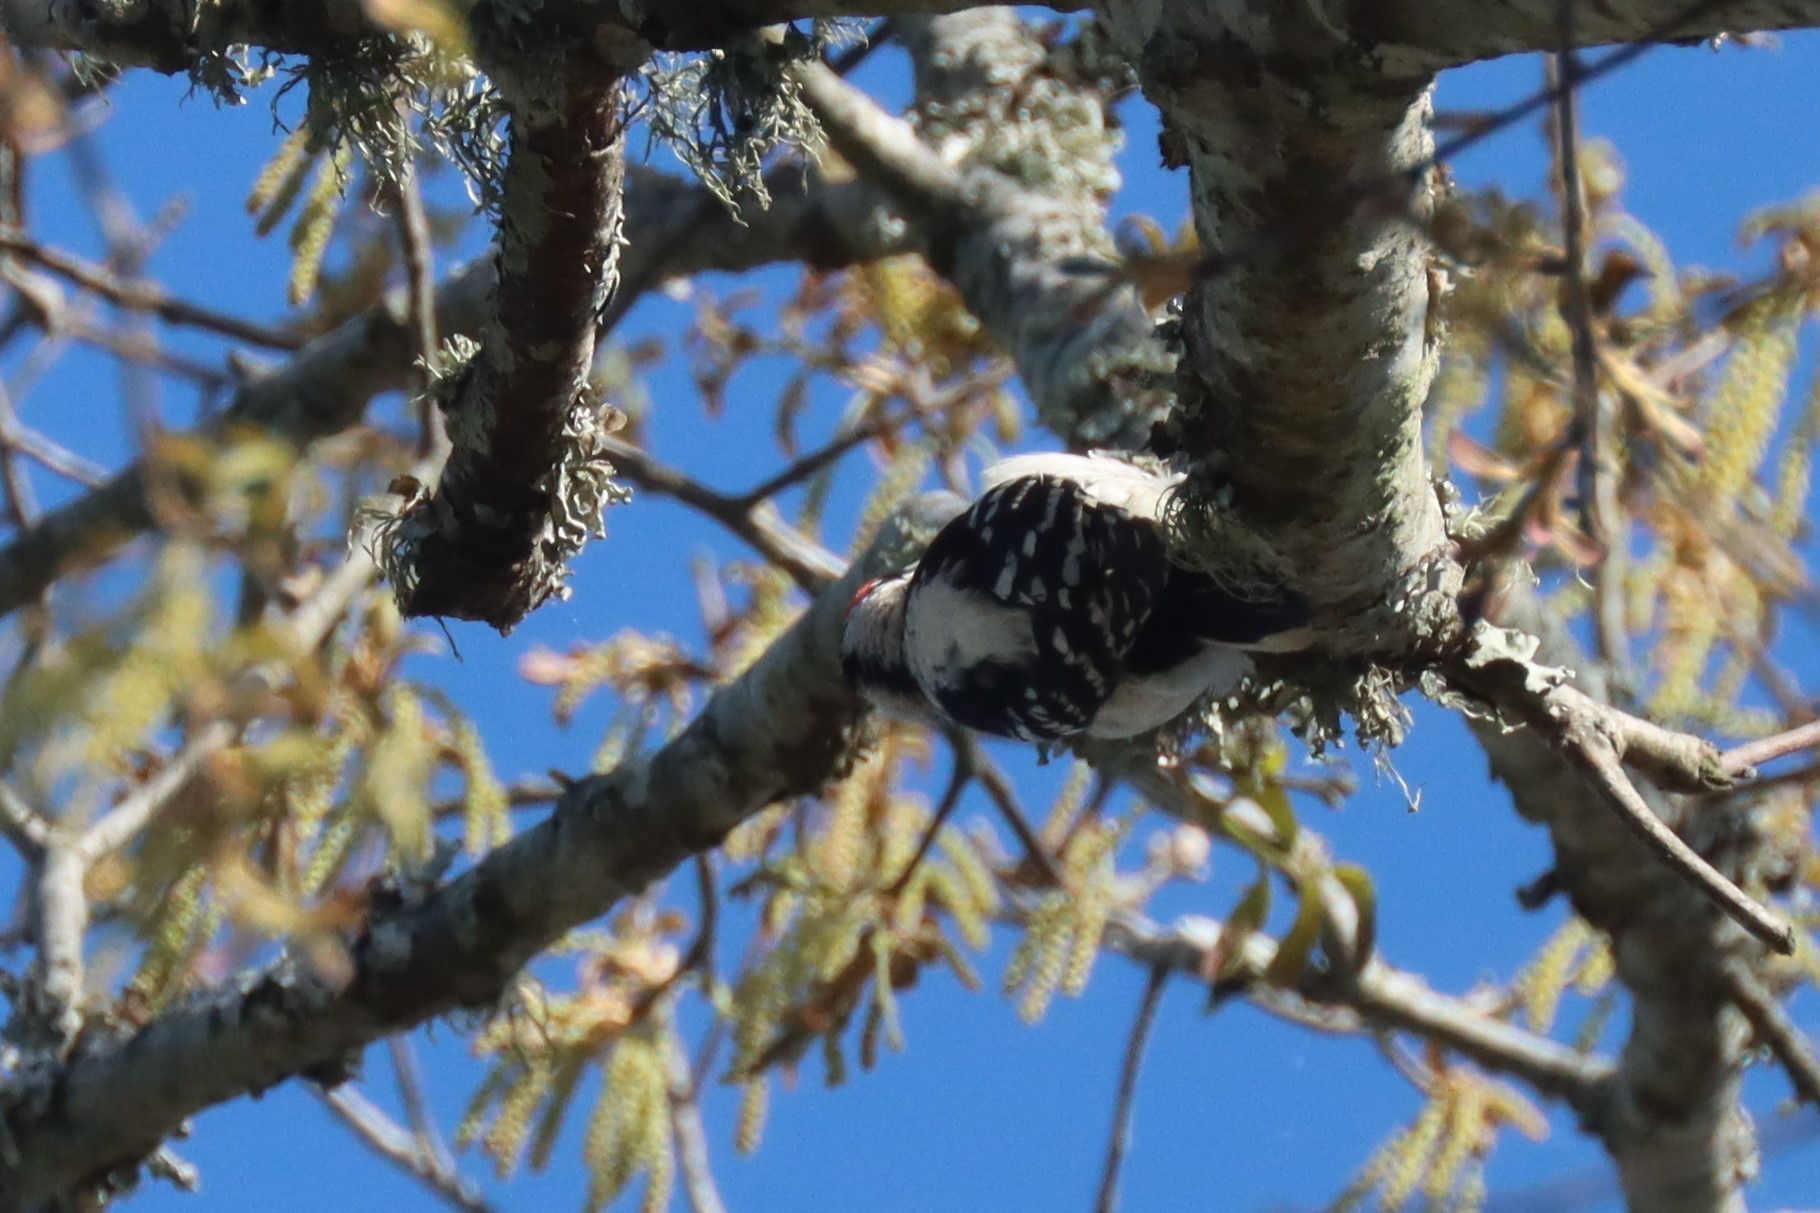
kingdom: Animalia
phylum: Chordata
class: Aves
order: Piciformes
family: Picidae
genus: Dryobates
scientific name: Dryobates pubescens
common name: Downy woodpecker
